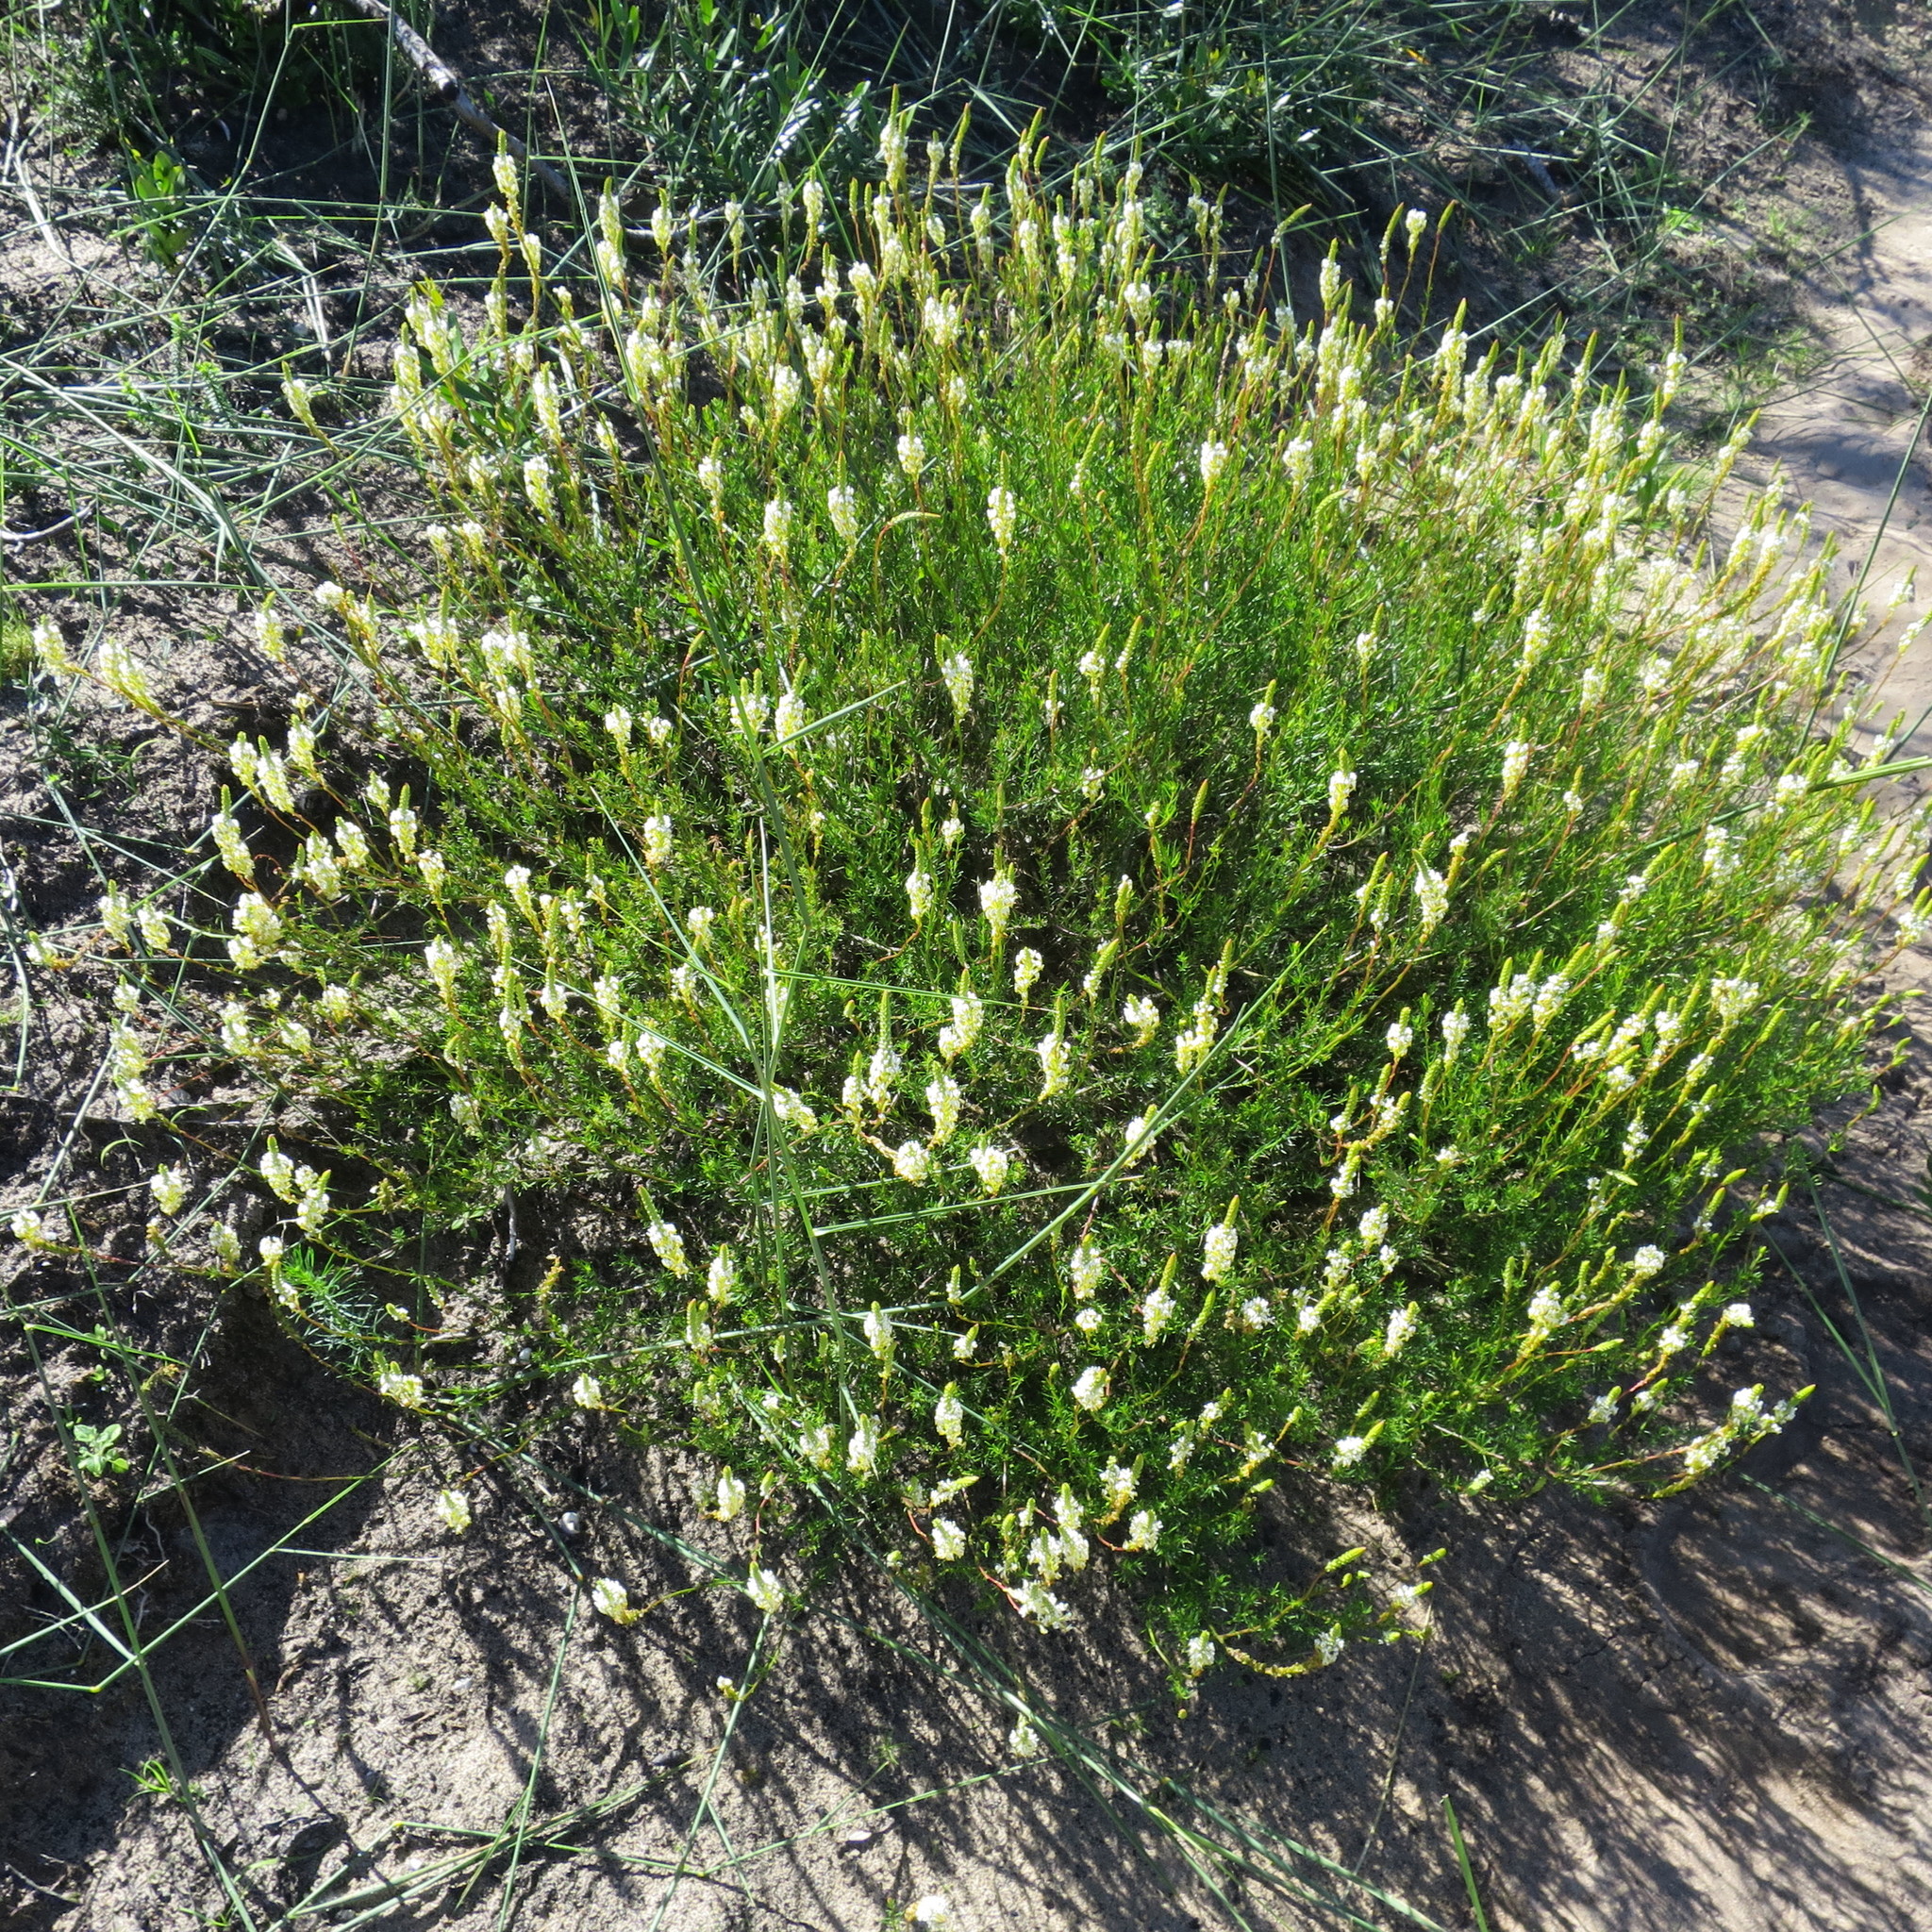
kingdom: Plantae
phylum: Tracheophyta
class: Magnoliopsida
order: Lamiales
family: Scrophulariaceae
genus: Hebenstretia
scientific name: Hebenstretia integrifolia
